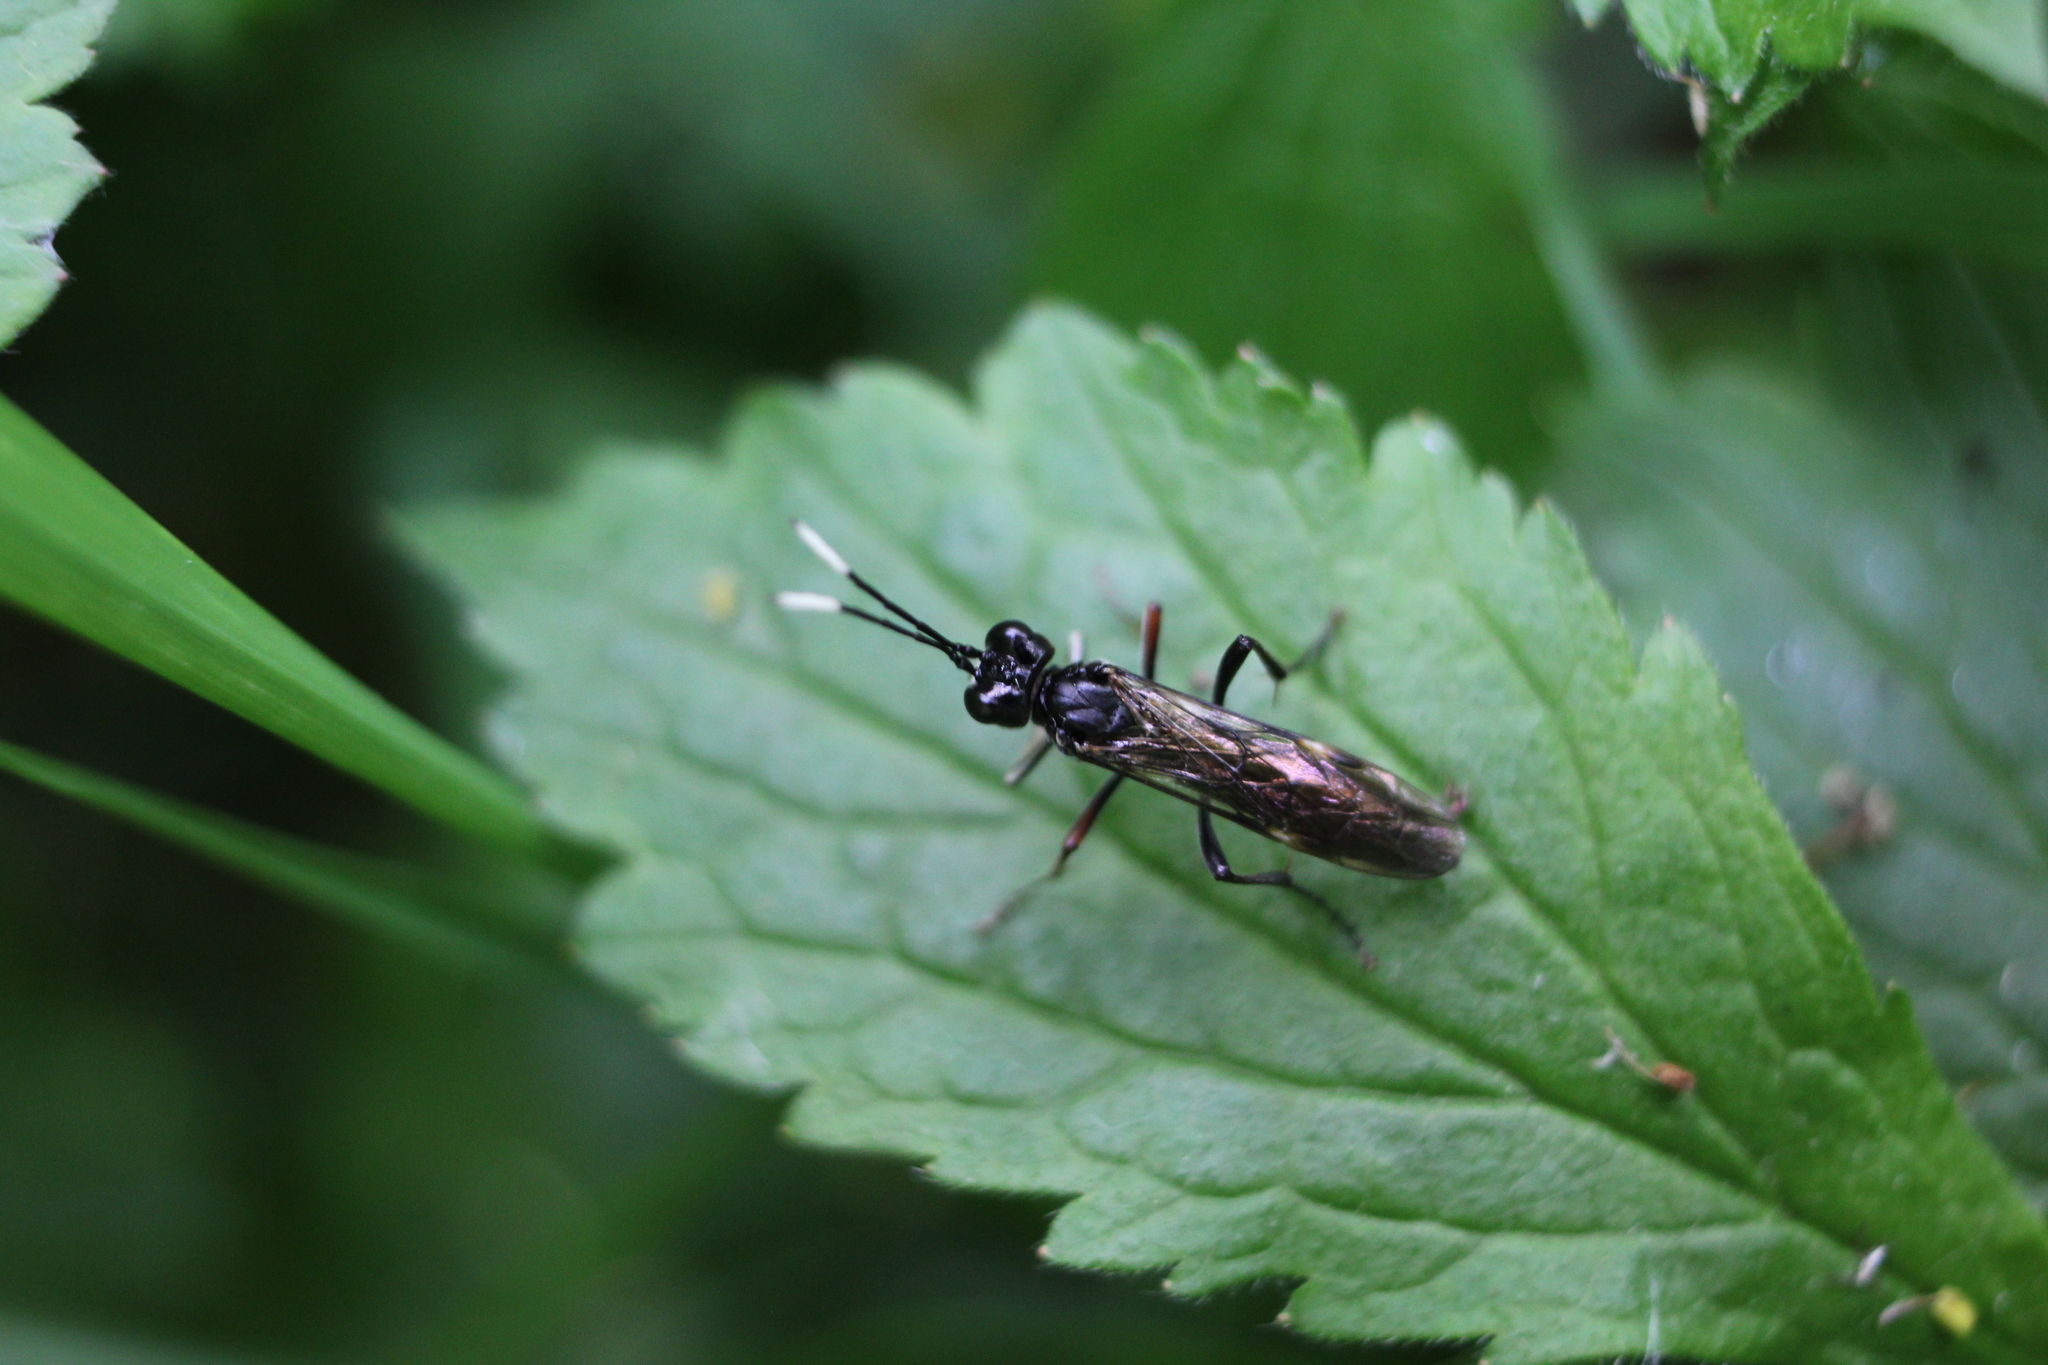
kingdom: Animalia
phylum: Arthropoda
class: Insecta
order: Hymenoptera
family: Tenthredinidae
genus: Tenthredo
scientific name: Tenthredo livida
